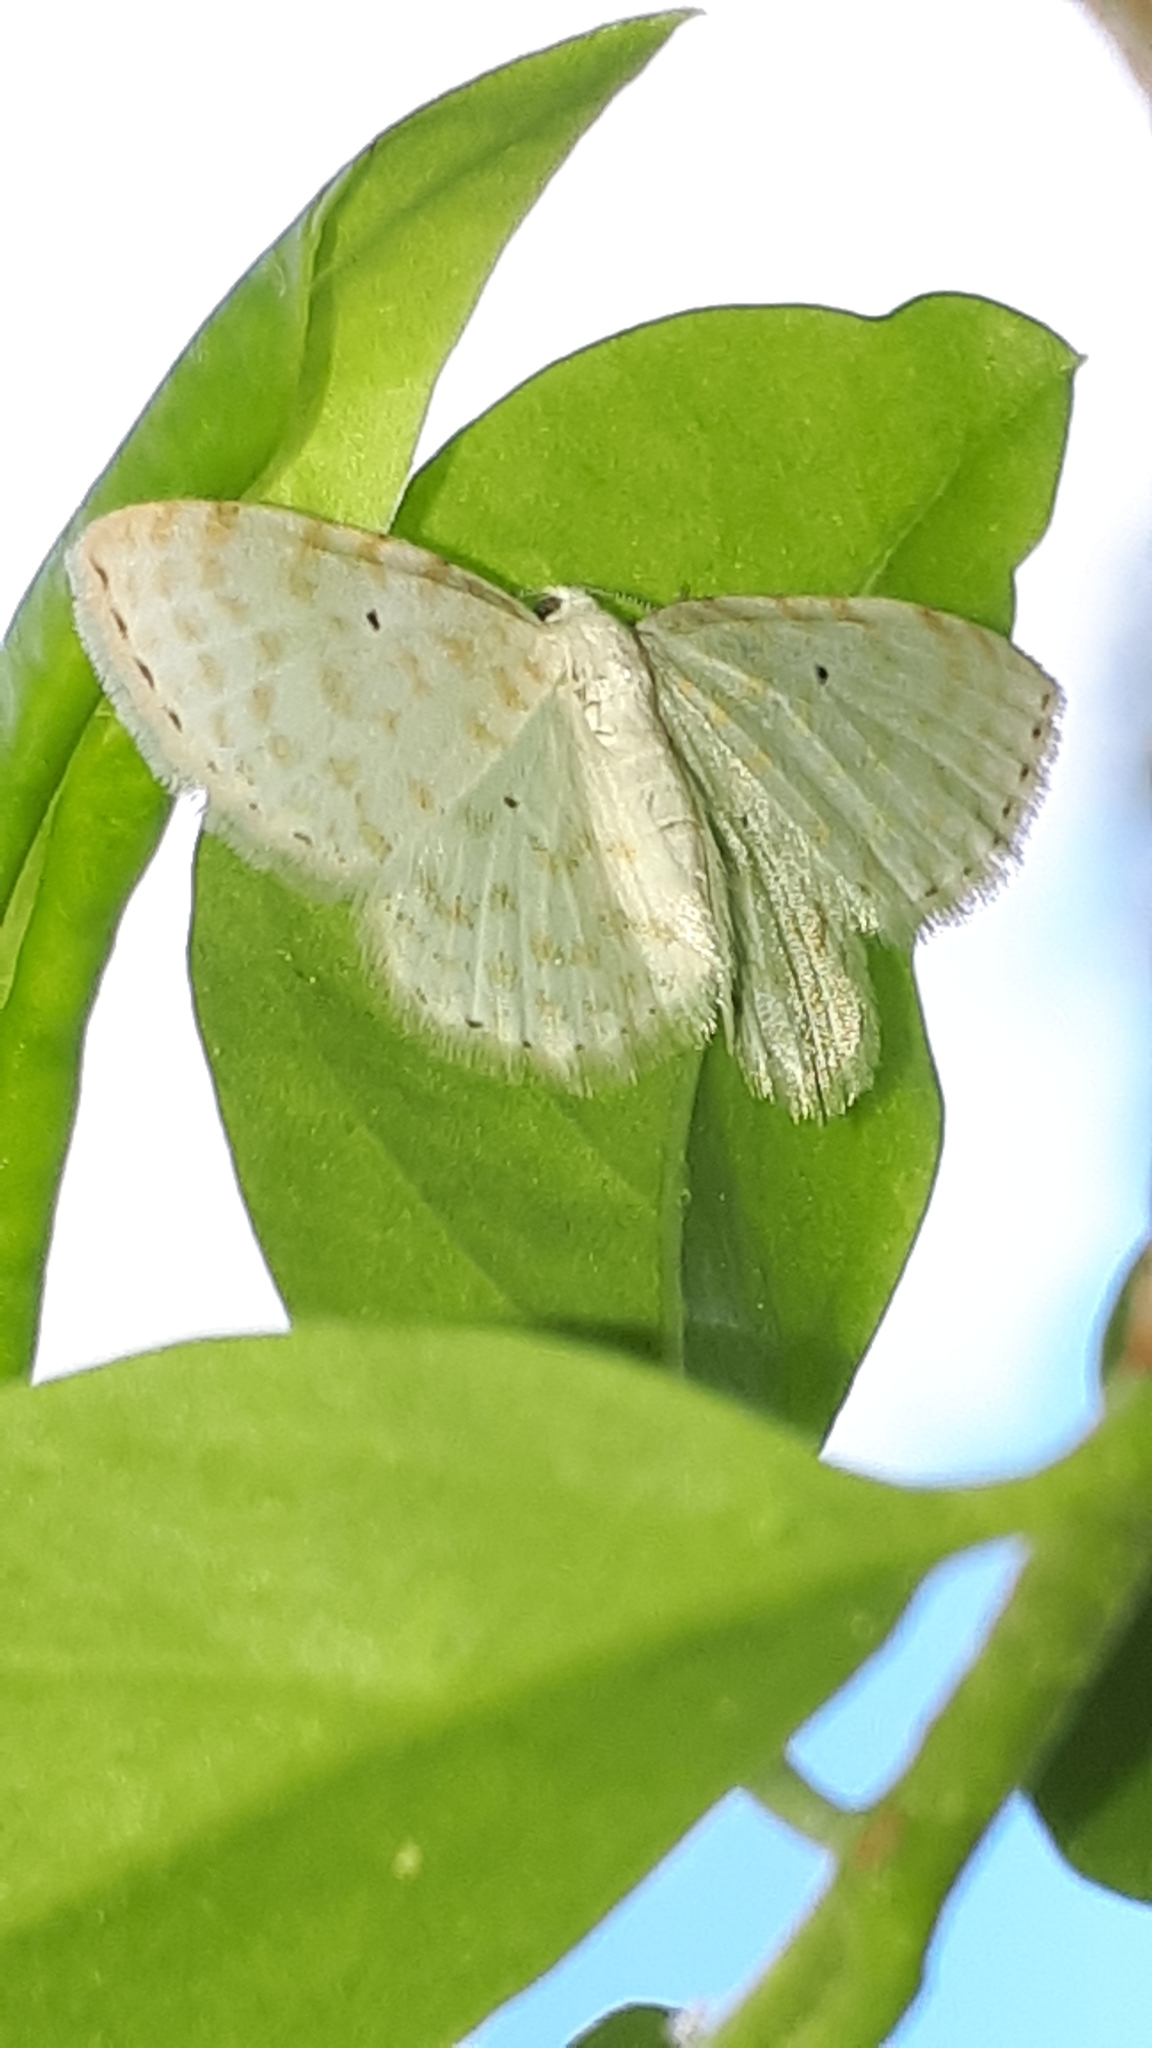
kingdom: Animalia
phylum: Arthropoda
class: Insecta
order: Lepidoptera
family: Geometridae
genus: Asthena
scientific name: Asthena anseraria
